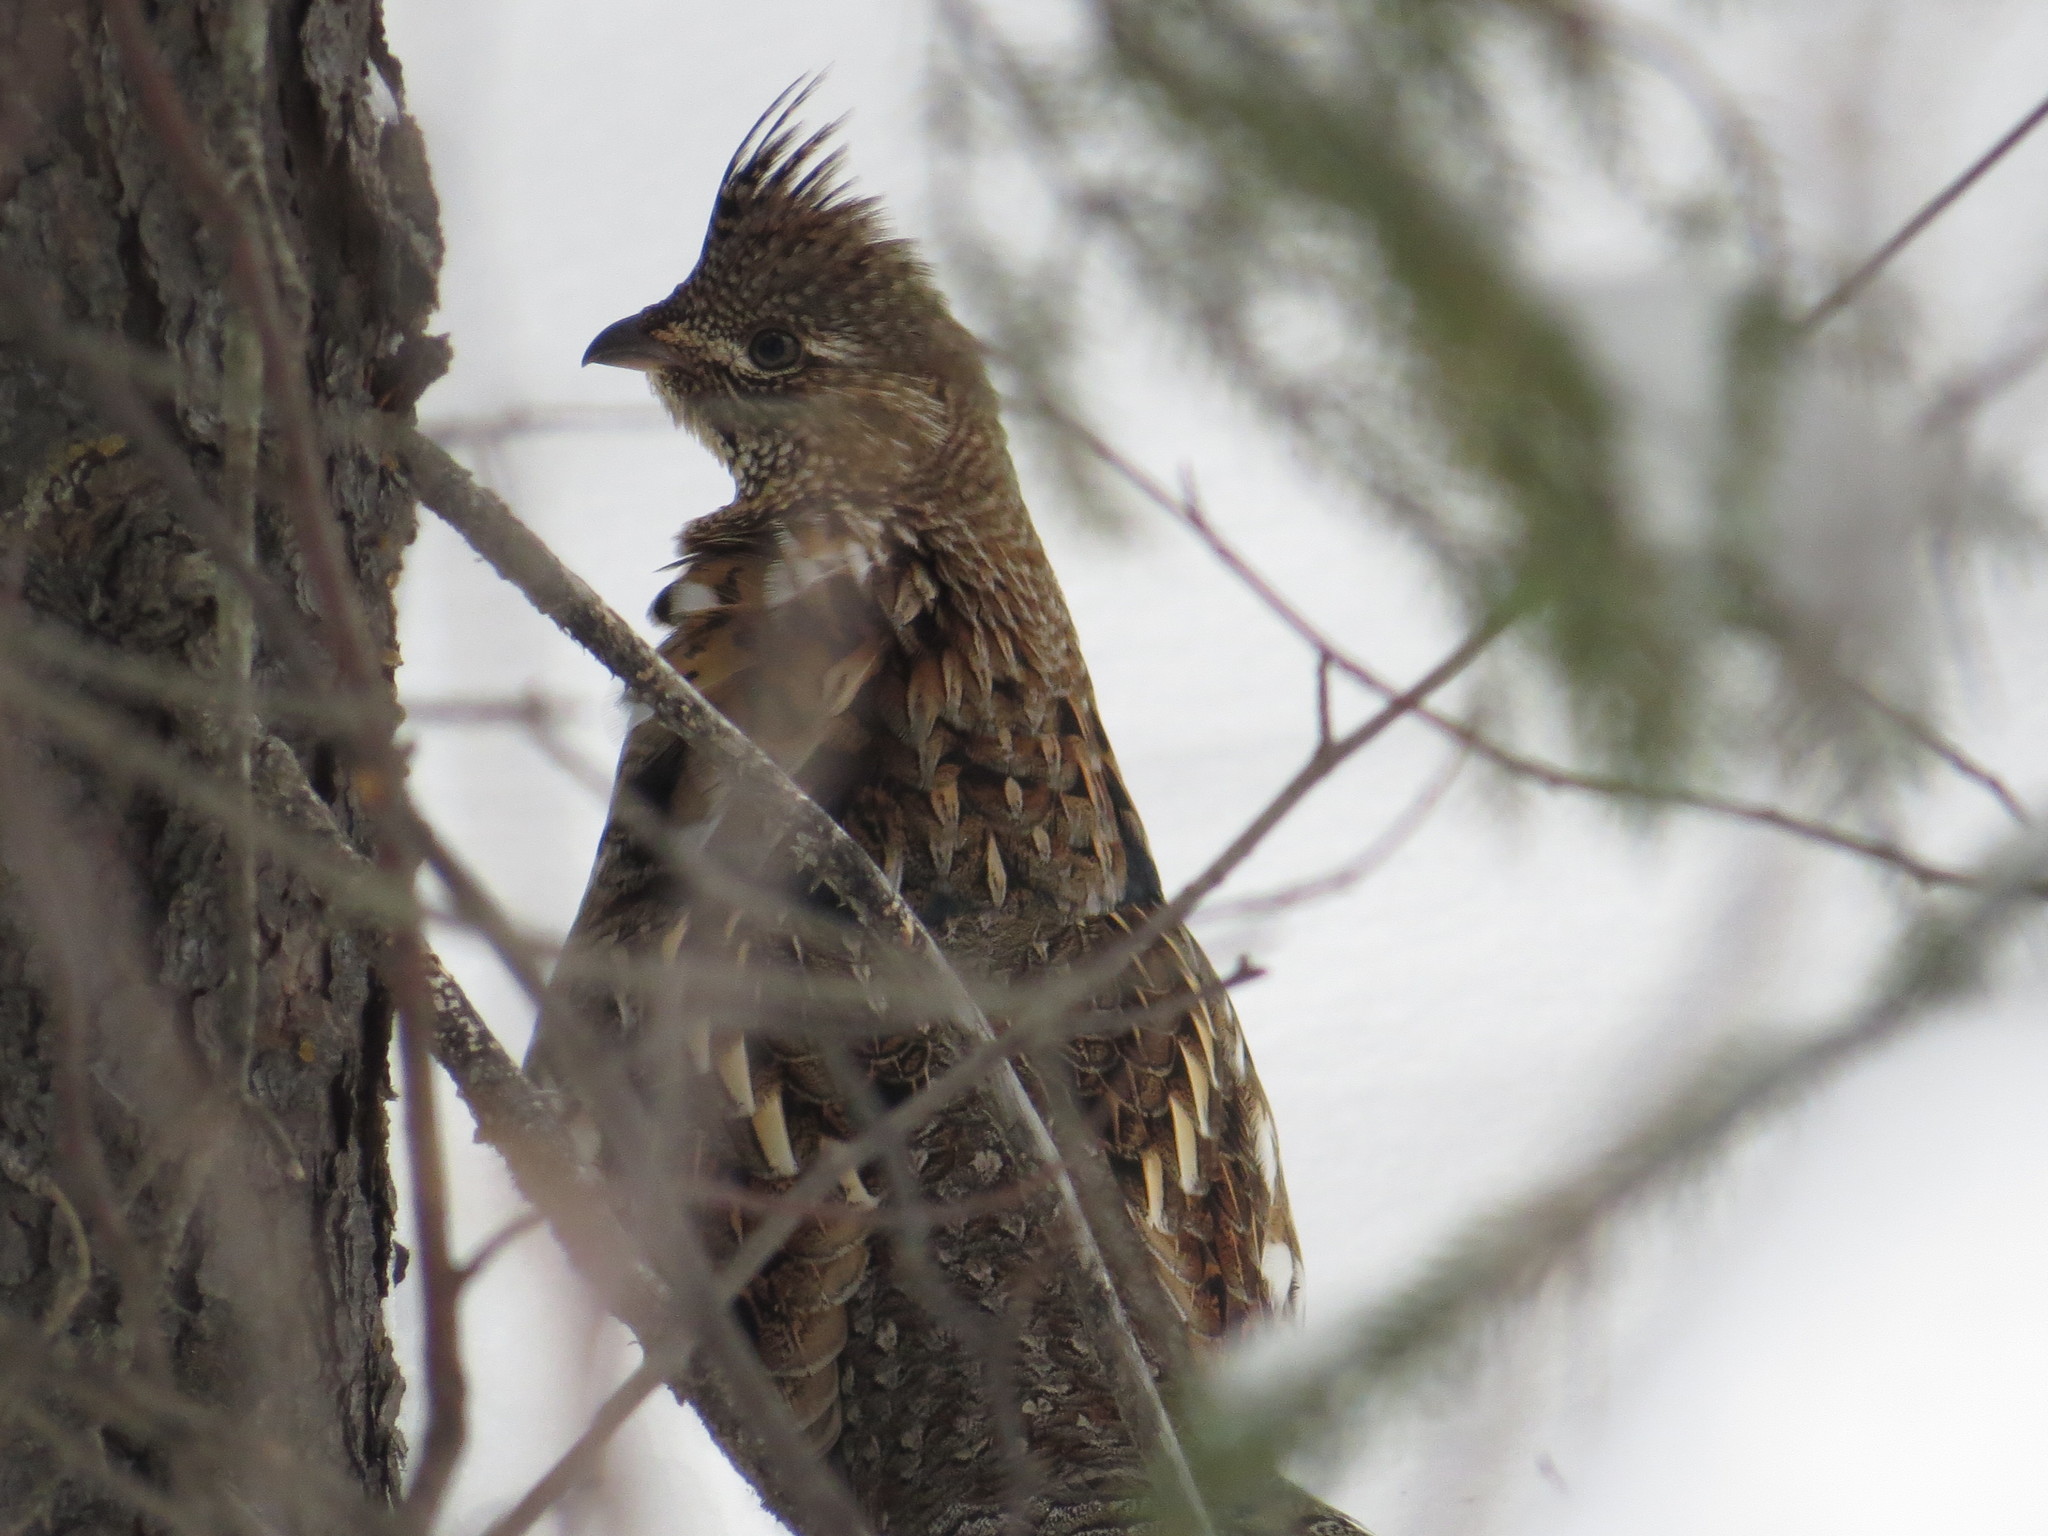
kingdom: Animalia
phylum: Chordata
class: Aves
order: Galliformes
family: Phasianidae
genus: Bonasa
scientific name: Bonasa umbellus
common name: Ruffed grouse
